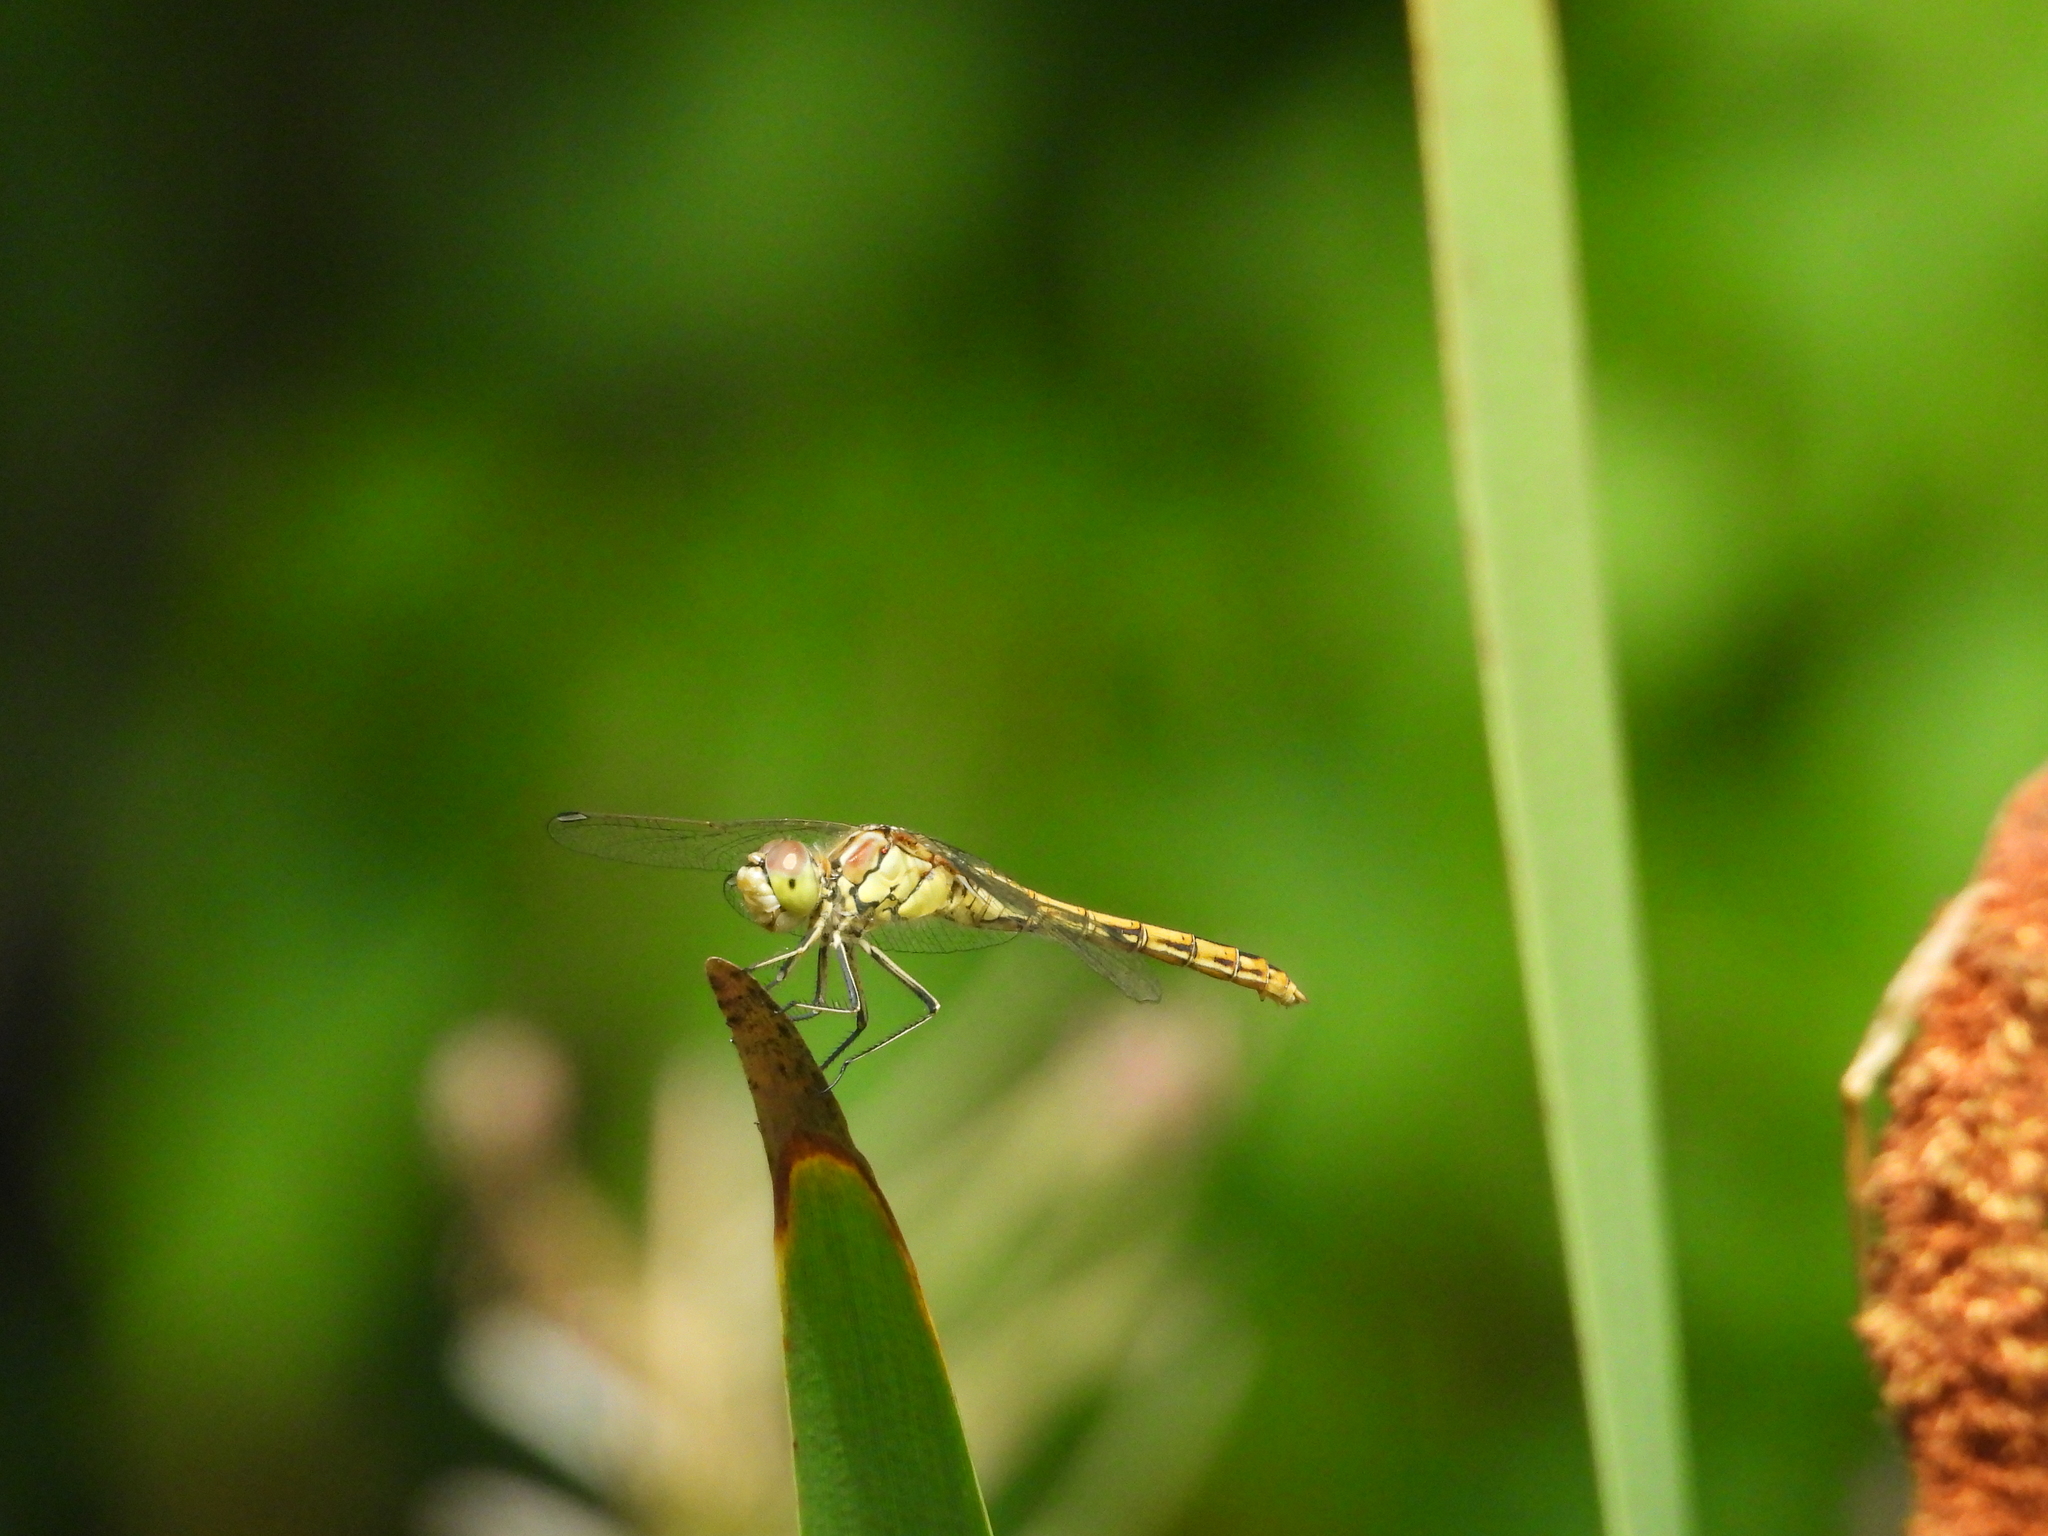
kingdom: Animalia
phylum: Arthropoda
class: Insecta
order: Odonata
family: Libellulidae
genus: Sympetrum
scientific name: Sympetrum vulgatum
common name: Vagrant darter
